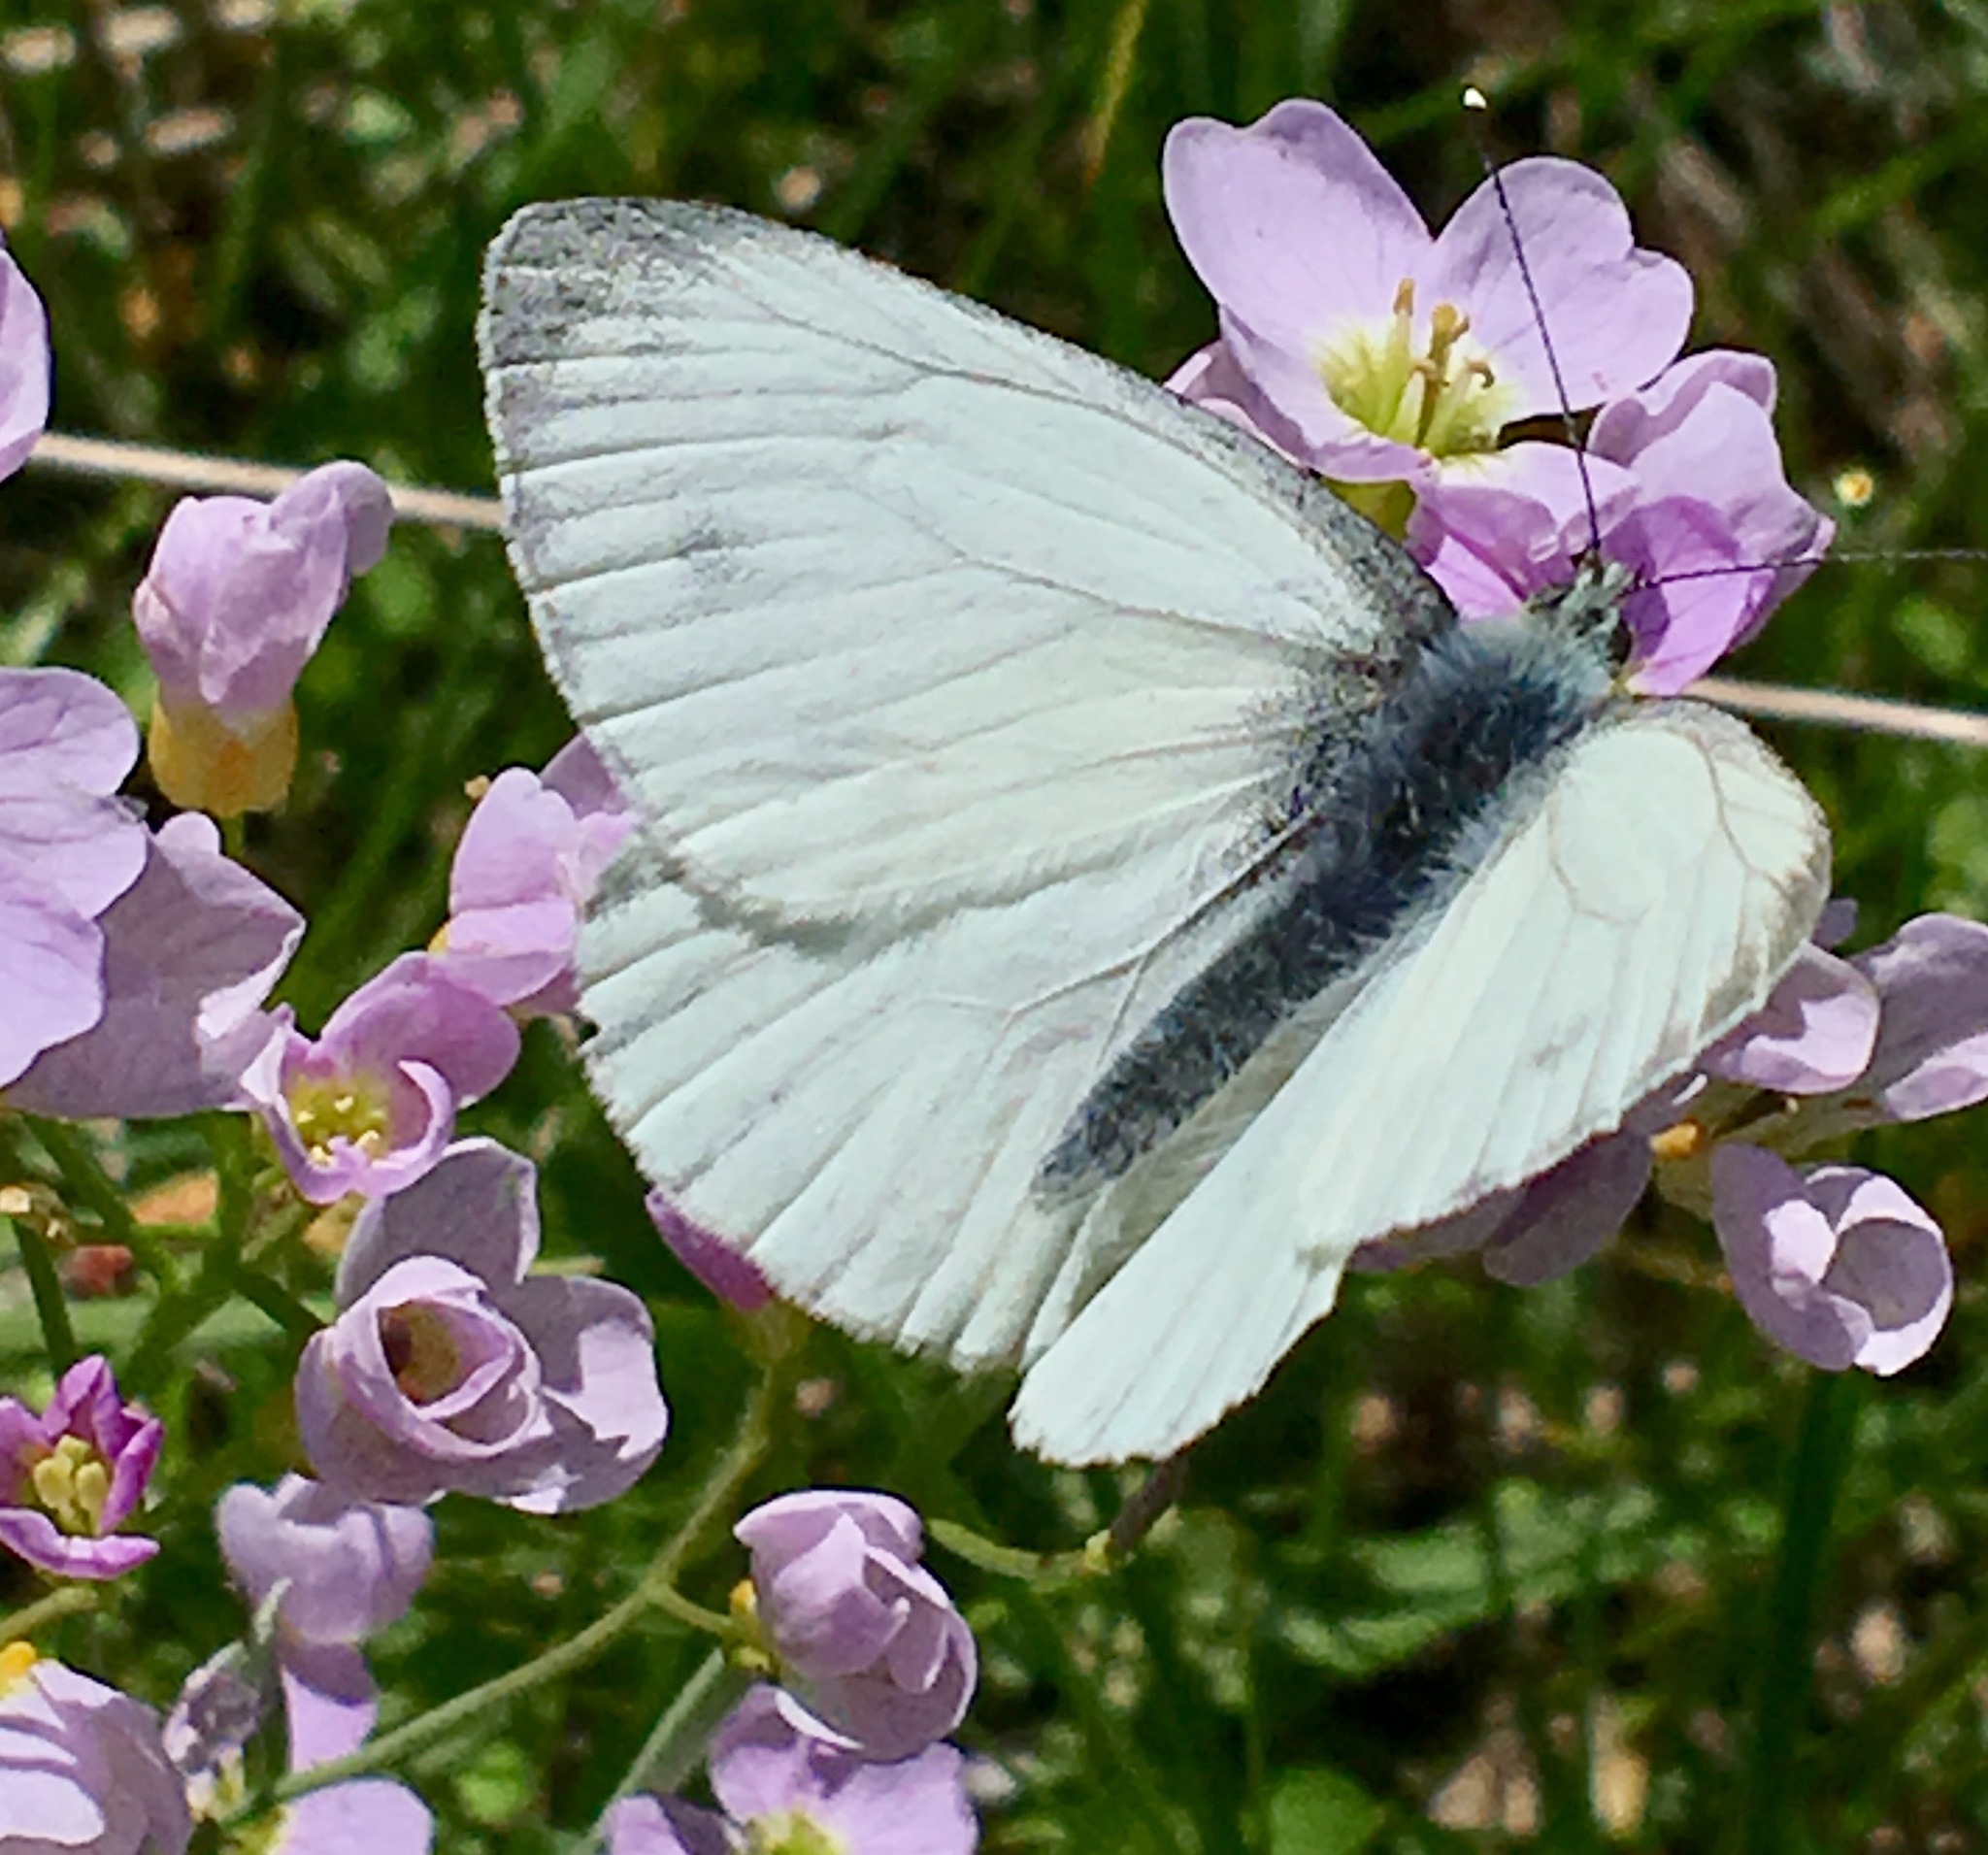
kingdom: Animalia
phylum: Arthropoda
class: Insecta
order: Lepidoptera
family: Pieridae
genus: Pieris
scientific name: Pieris napi
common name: Green-veined white
